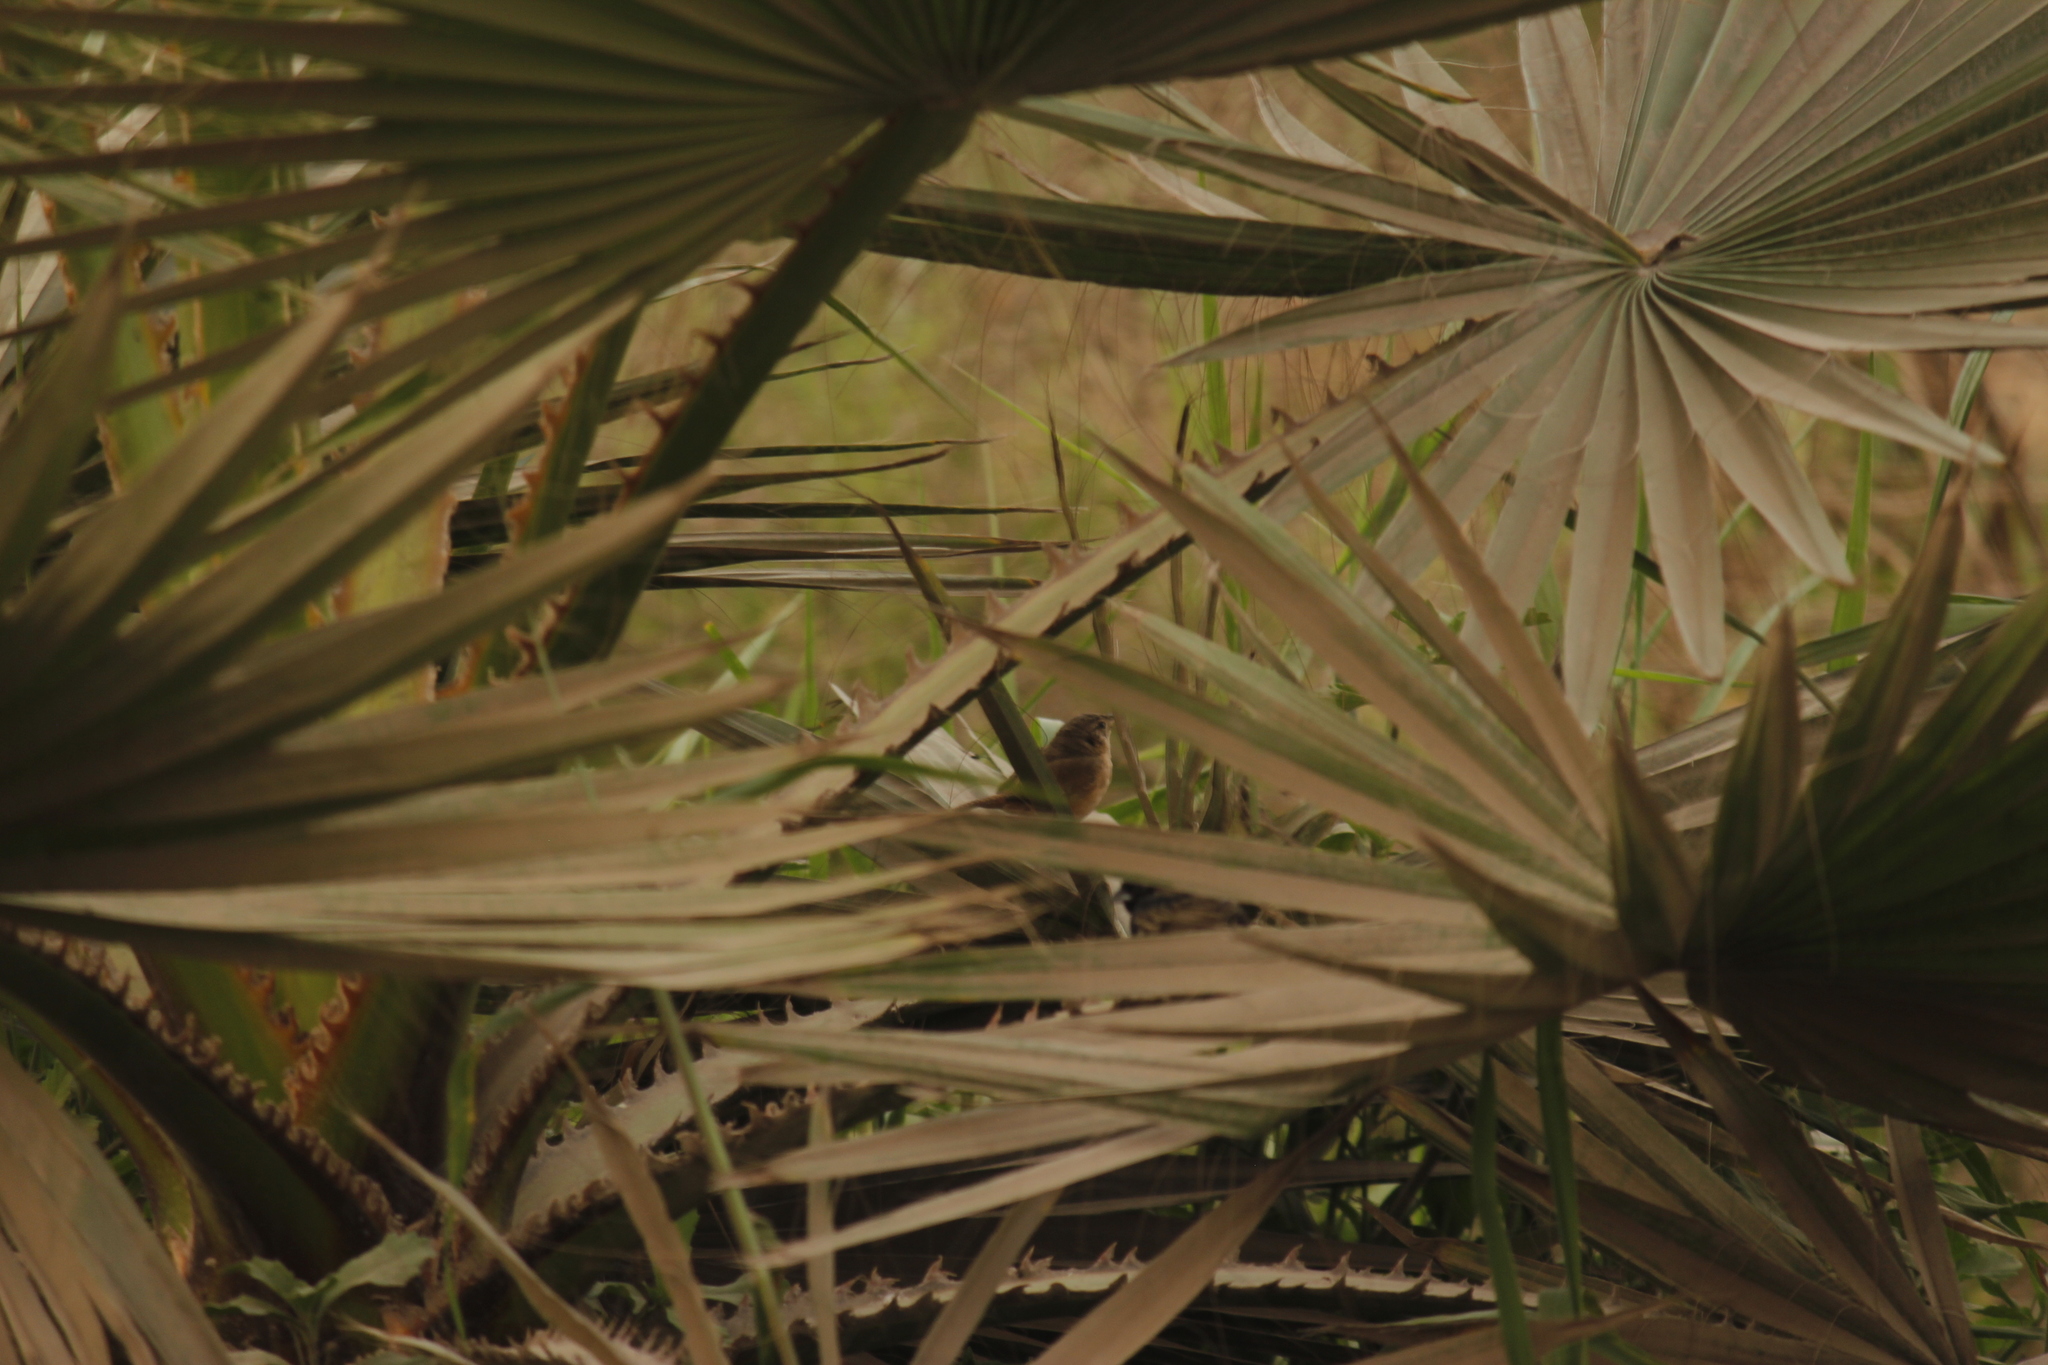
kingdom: Animalia
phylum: Chordata
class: Aves
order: Passeriformes
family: Troglodytidae
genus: Troglodytes
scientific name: Troglodytes aedon
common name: House wren
